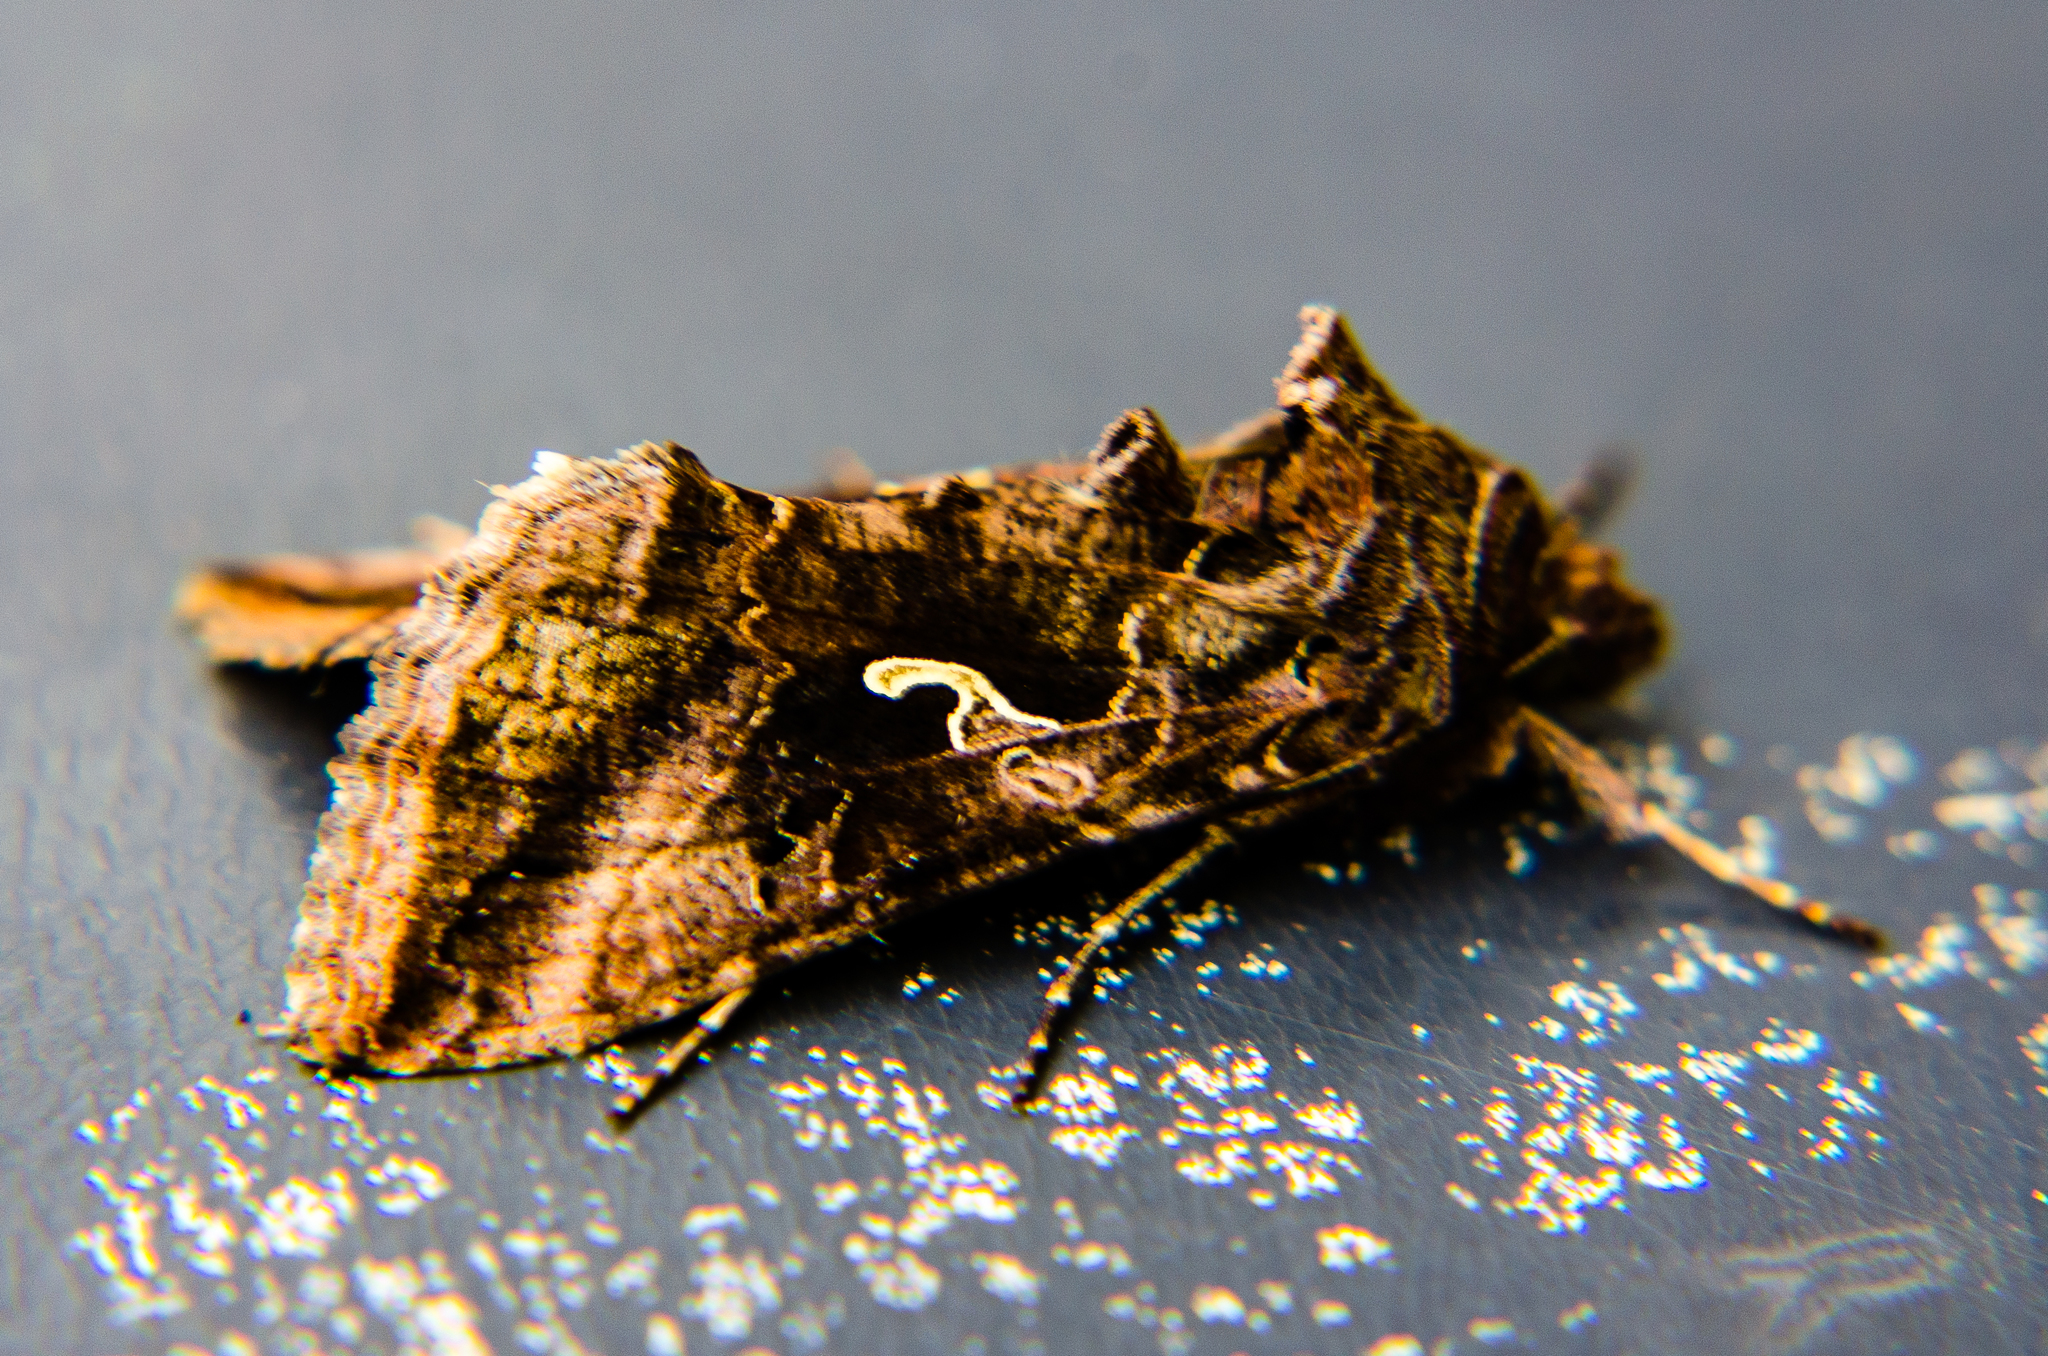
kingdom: Animalia
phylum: Arthropoda
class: Insecta
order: Lepidoptera
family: Noctuidae
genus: Autographa
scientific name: Autographa gamma
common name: Silver y
